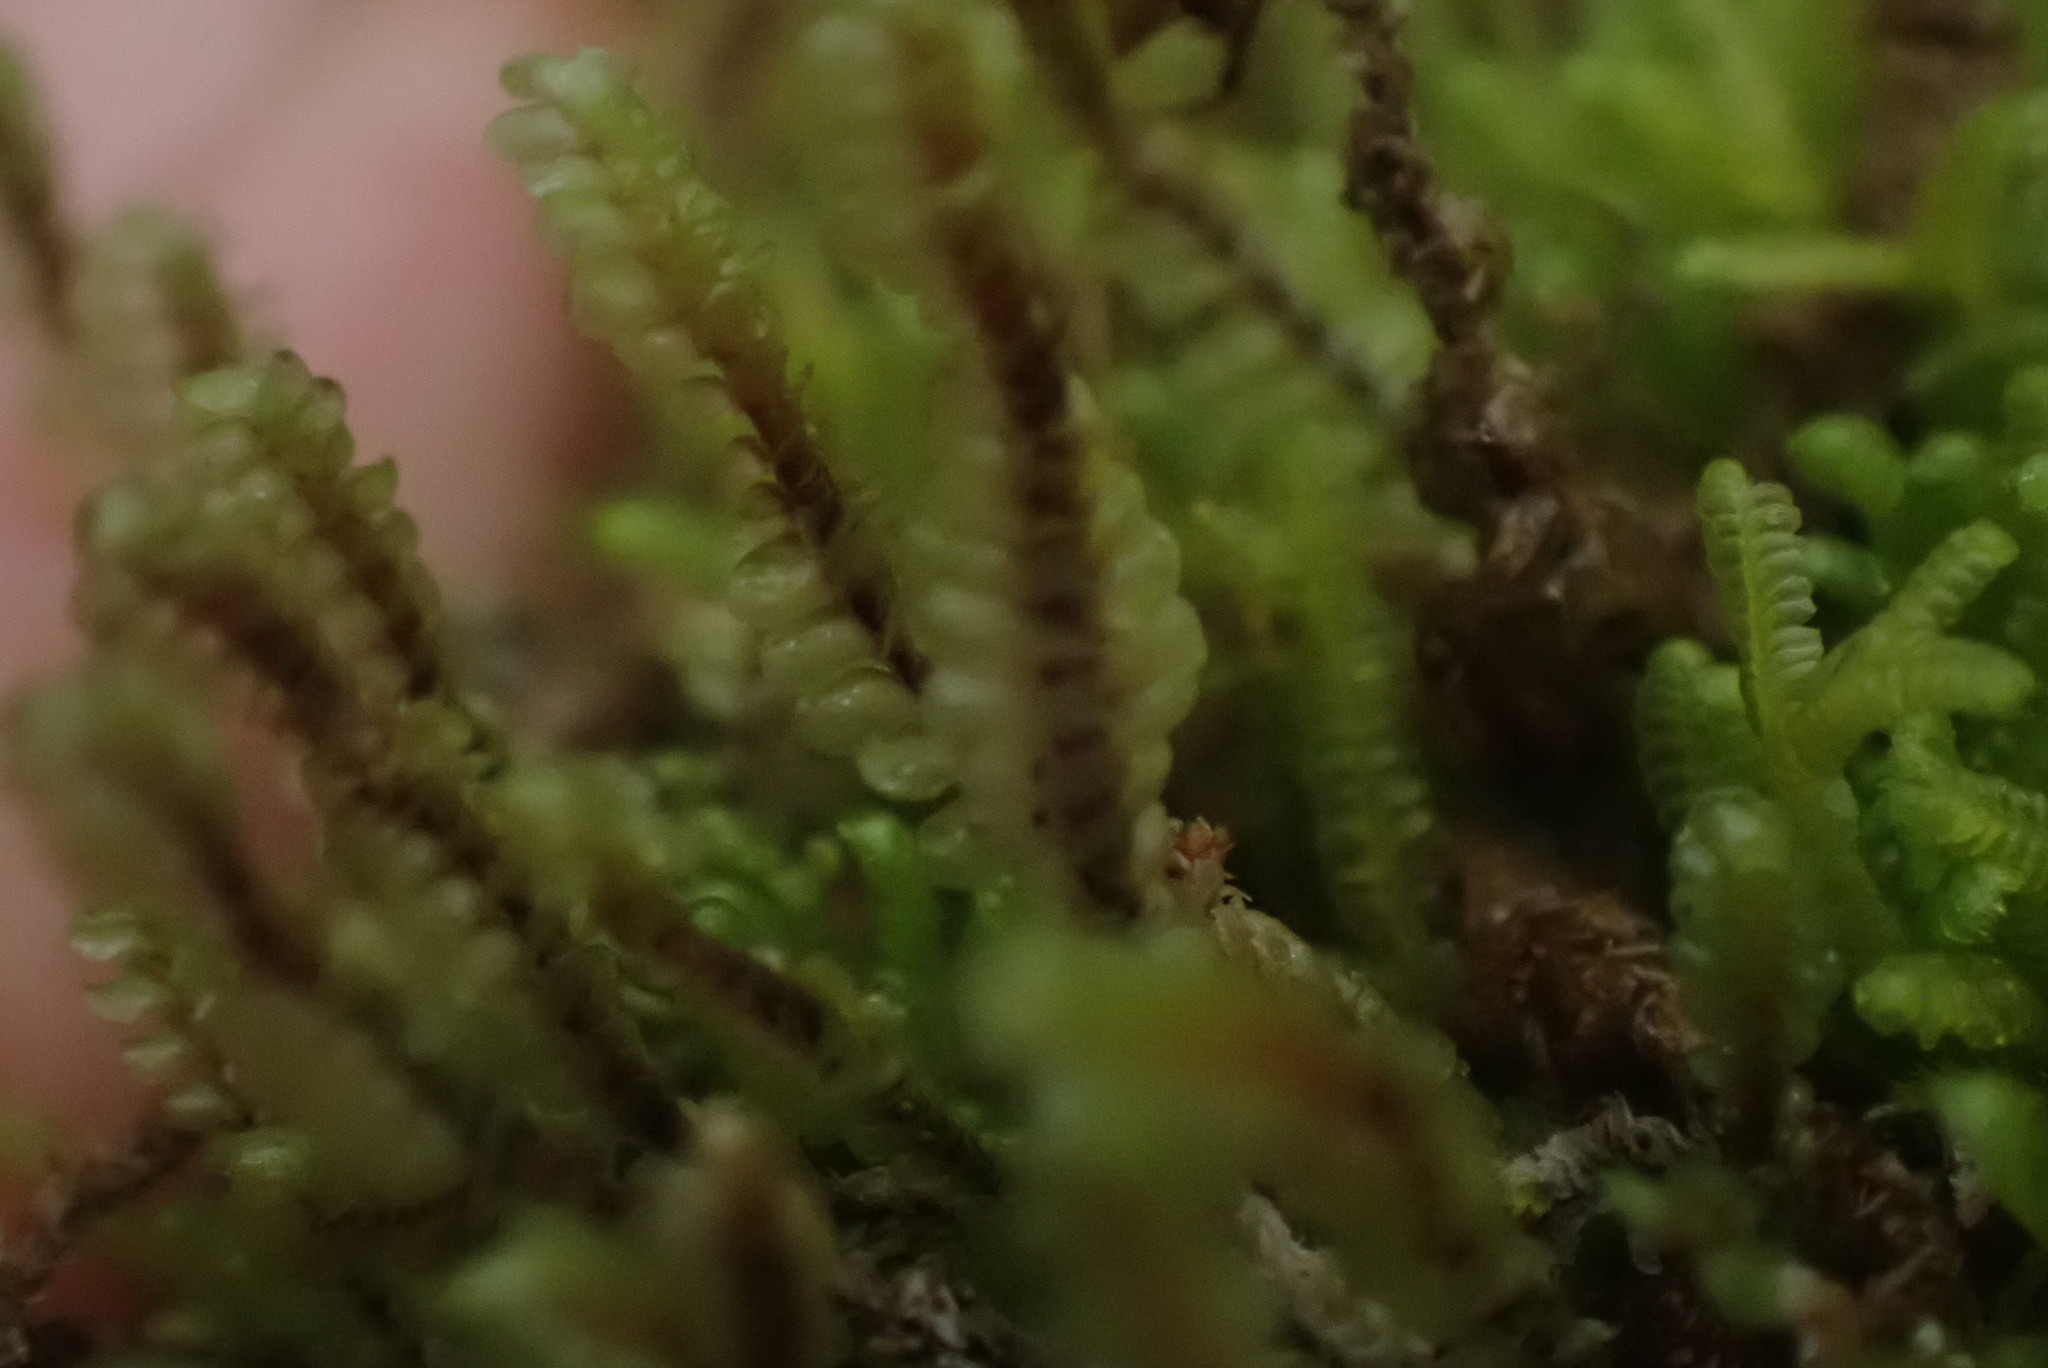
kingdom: Plantae
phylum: Marchantiophyta
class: Jungermanniopsida
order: Jungermanniales
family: Scapaniaceae
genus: Scapania
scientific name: Scapania bolanderi
